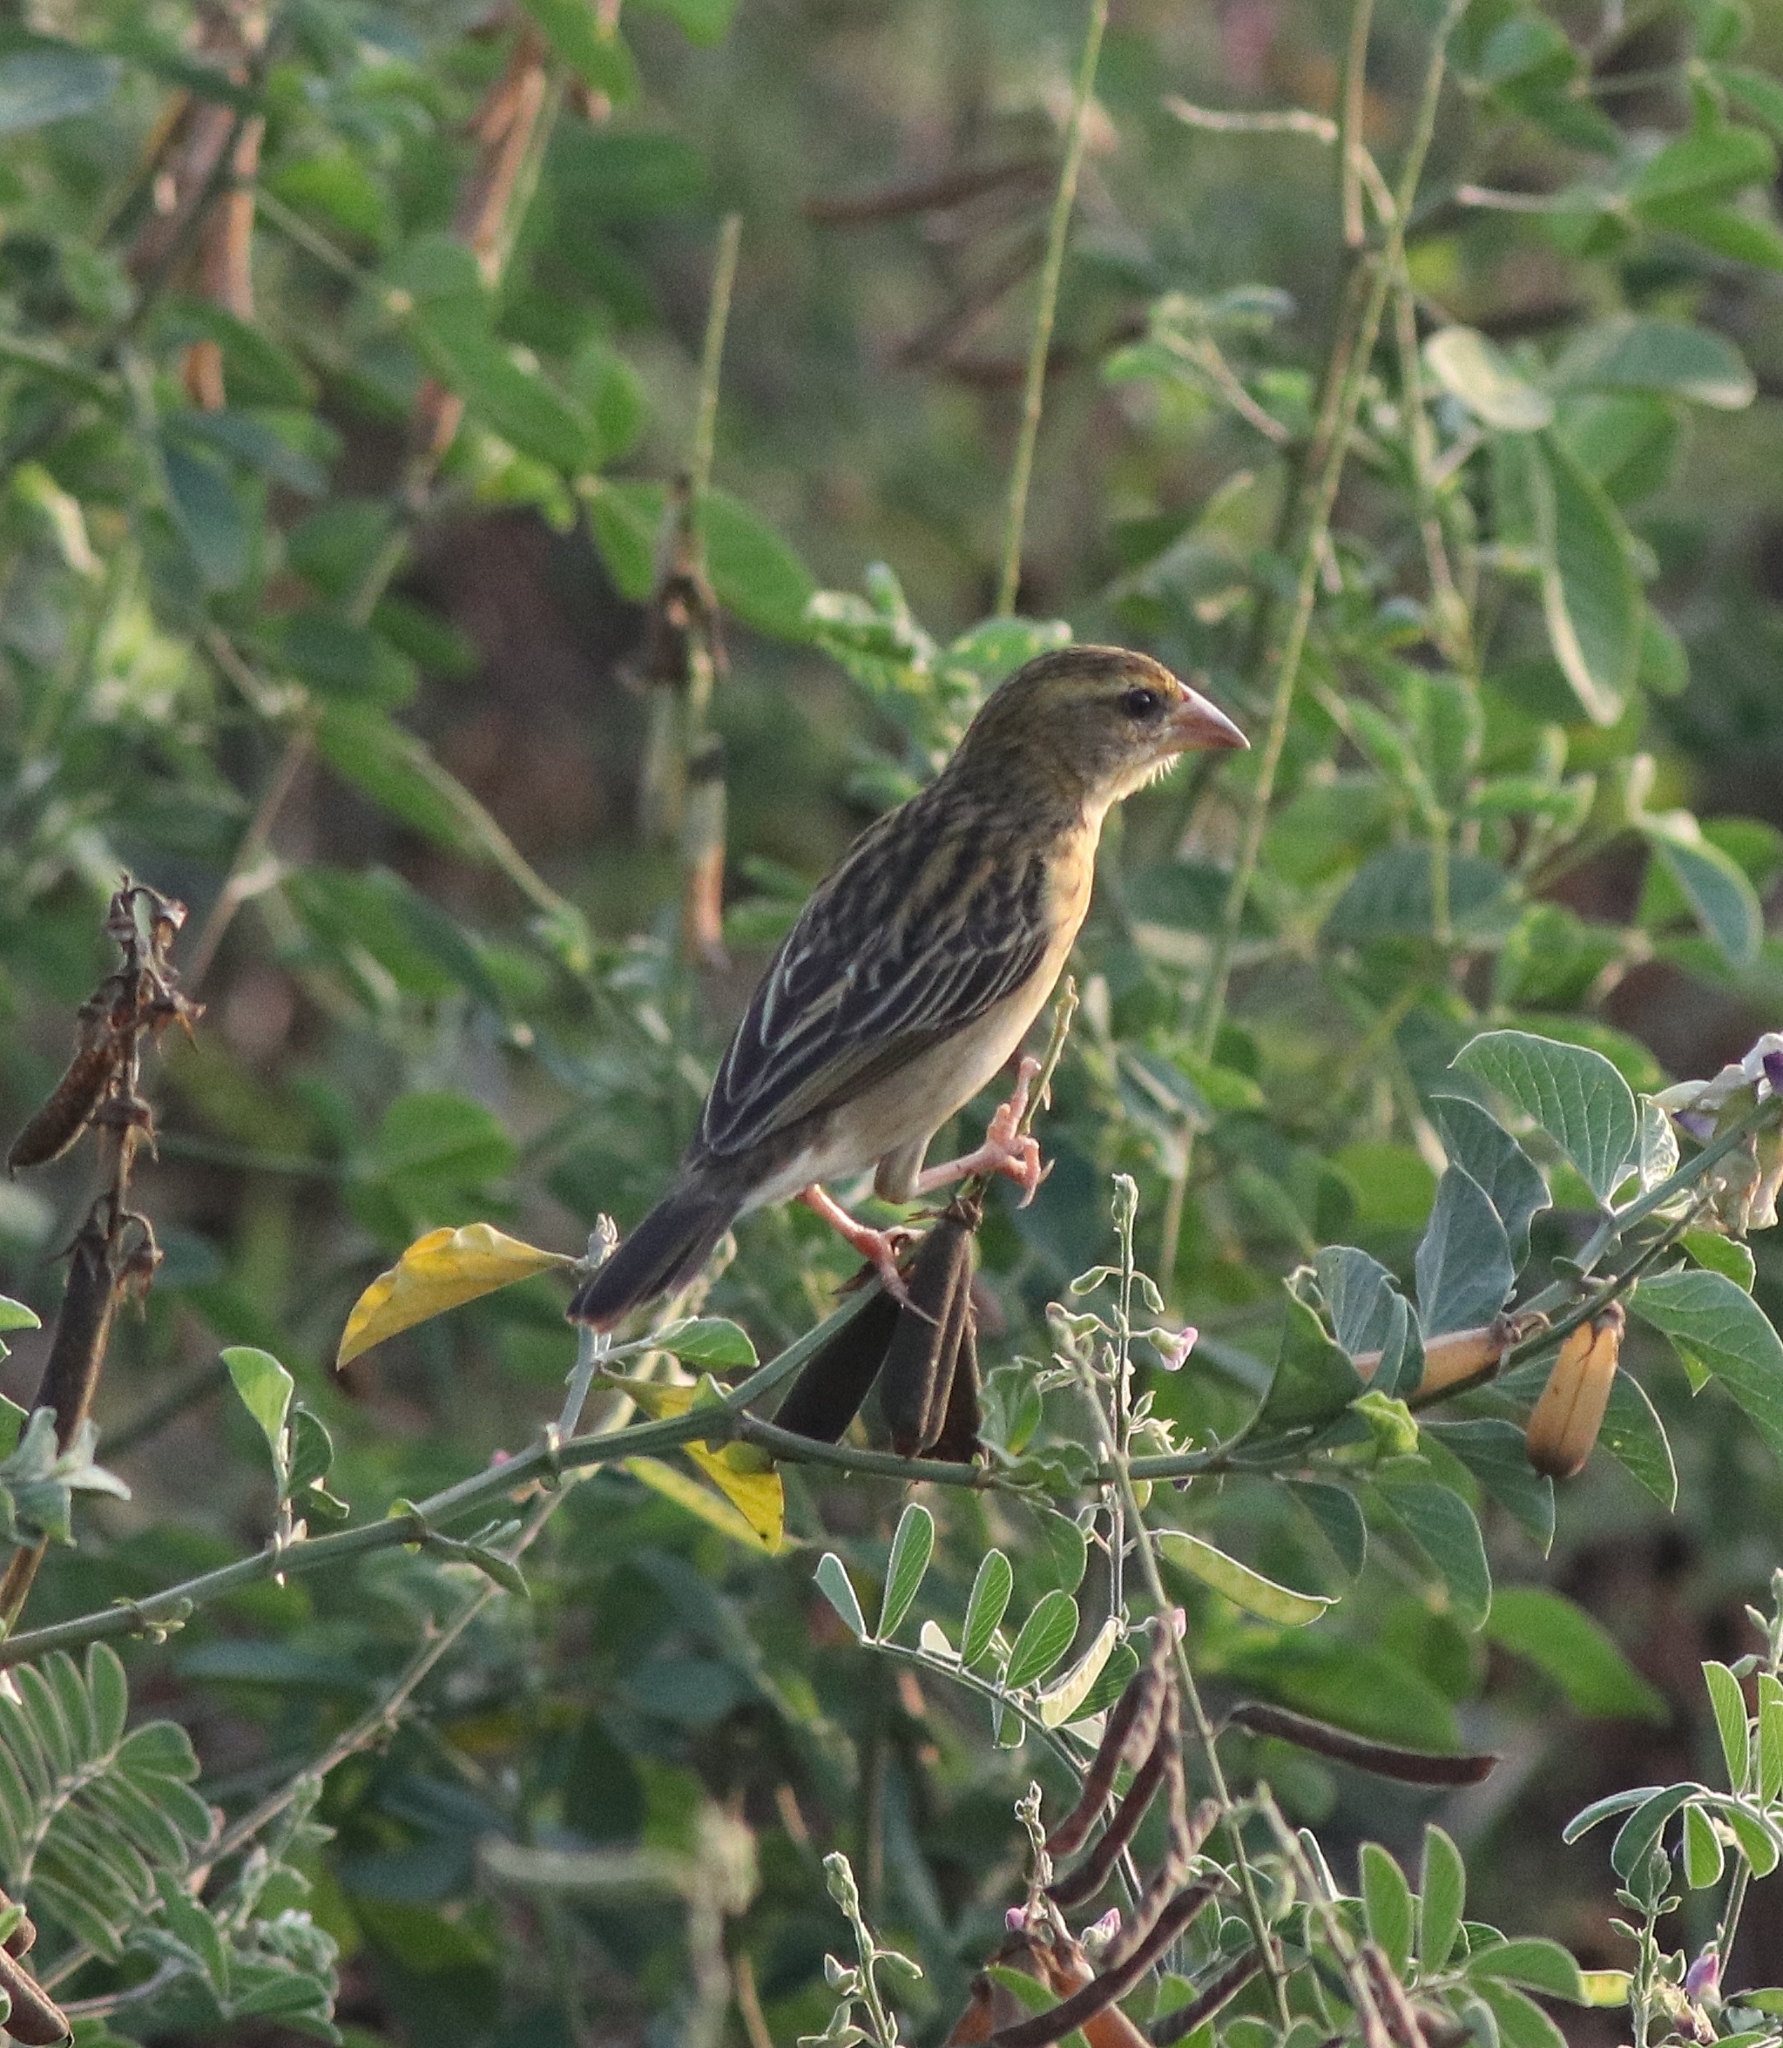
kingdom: Animalia
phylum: Chordata
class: Aves
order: Passeriformes
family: Ploceidae
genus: Ploceus
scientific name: Ploceus philippinus
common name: Baya weaver
